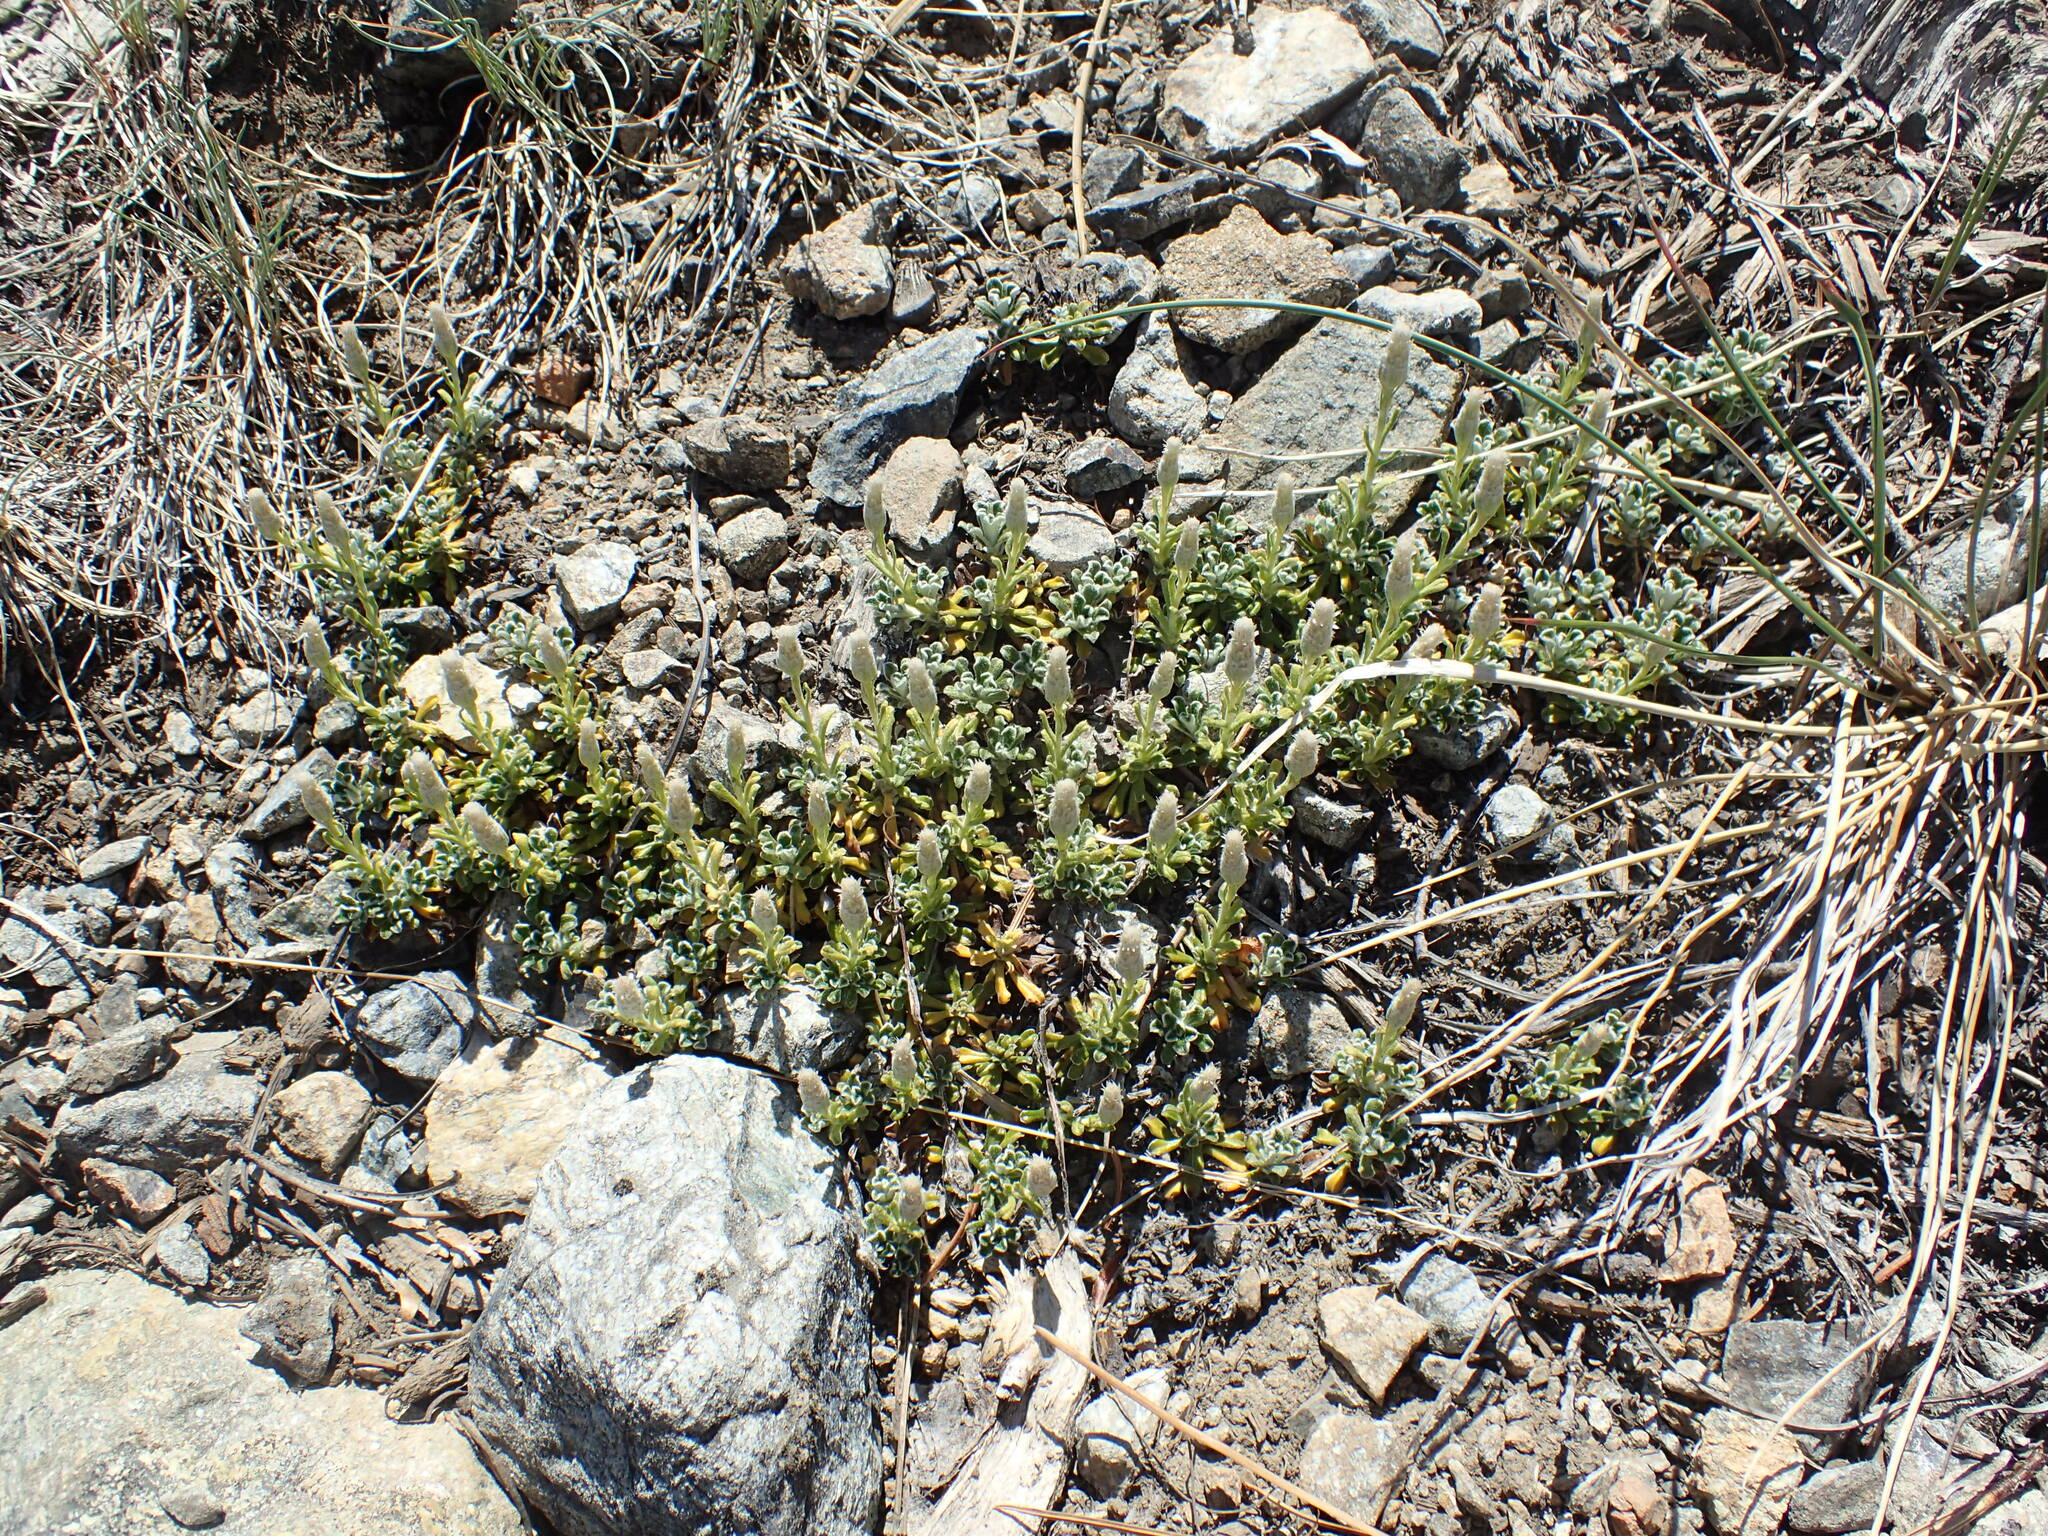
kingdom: Plantae
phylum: Tracheophyta
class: Magnoliopsida
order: Asterales
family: Asteraceae
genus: Antennaria
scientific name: Antennaria suffrutescens
